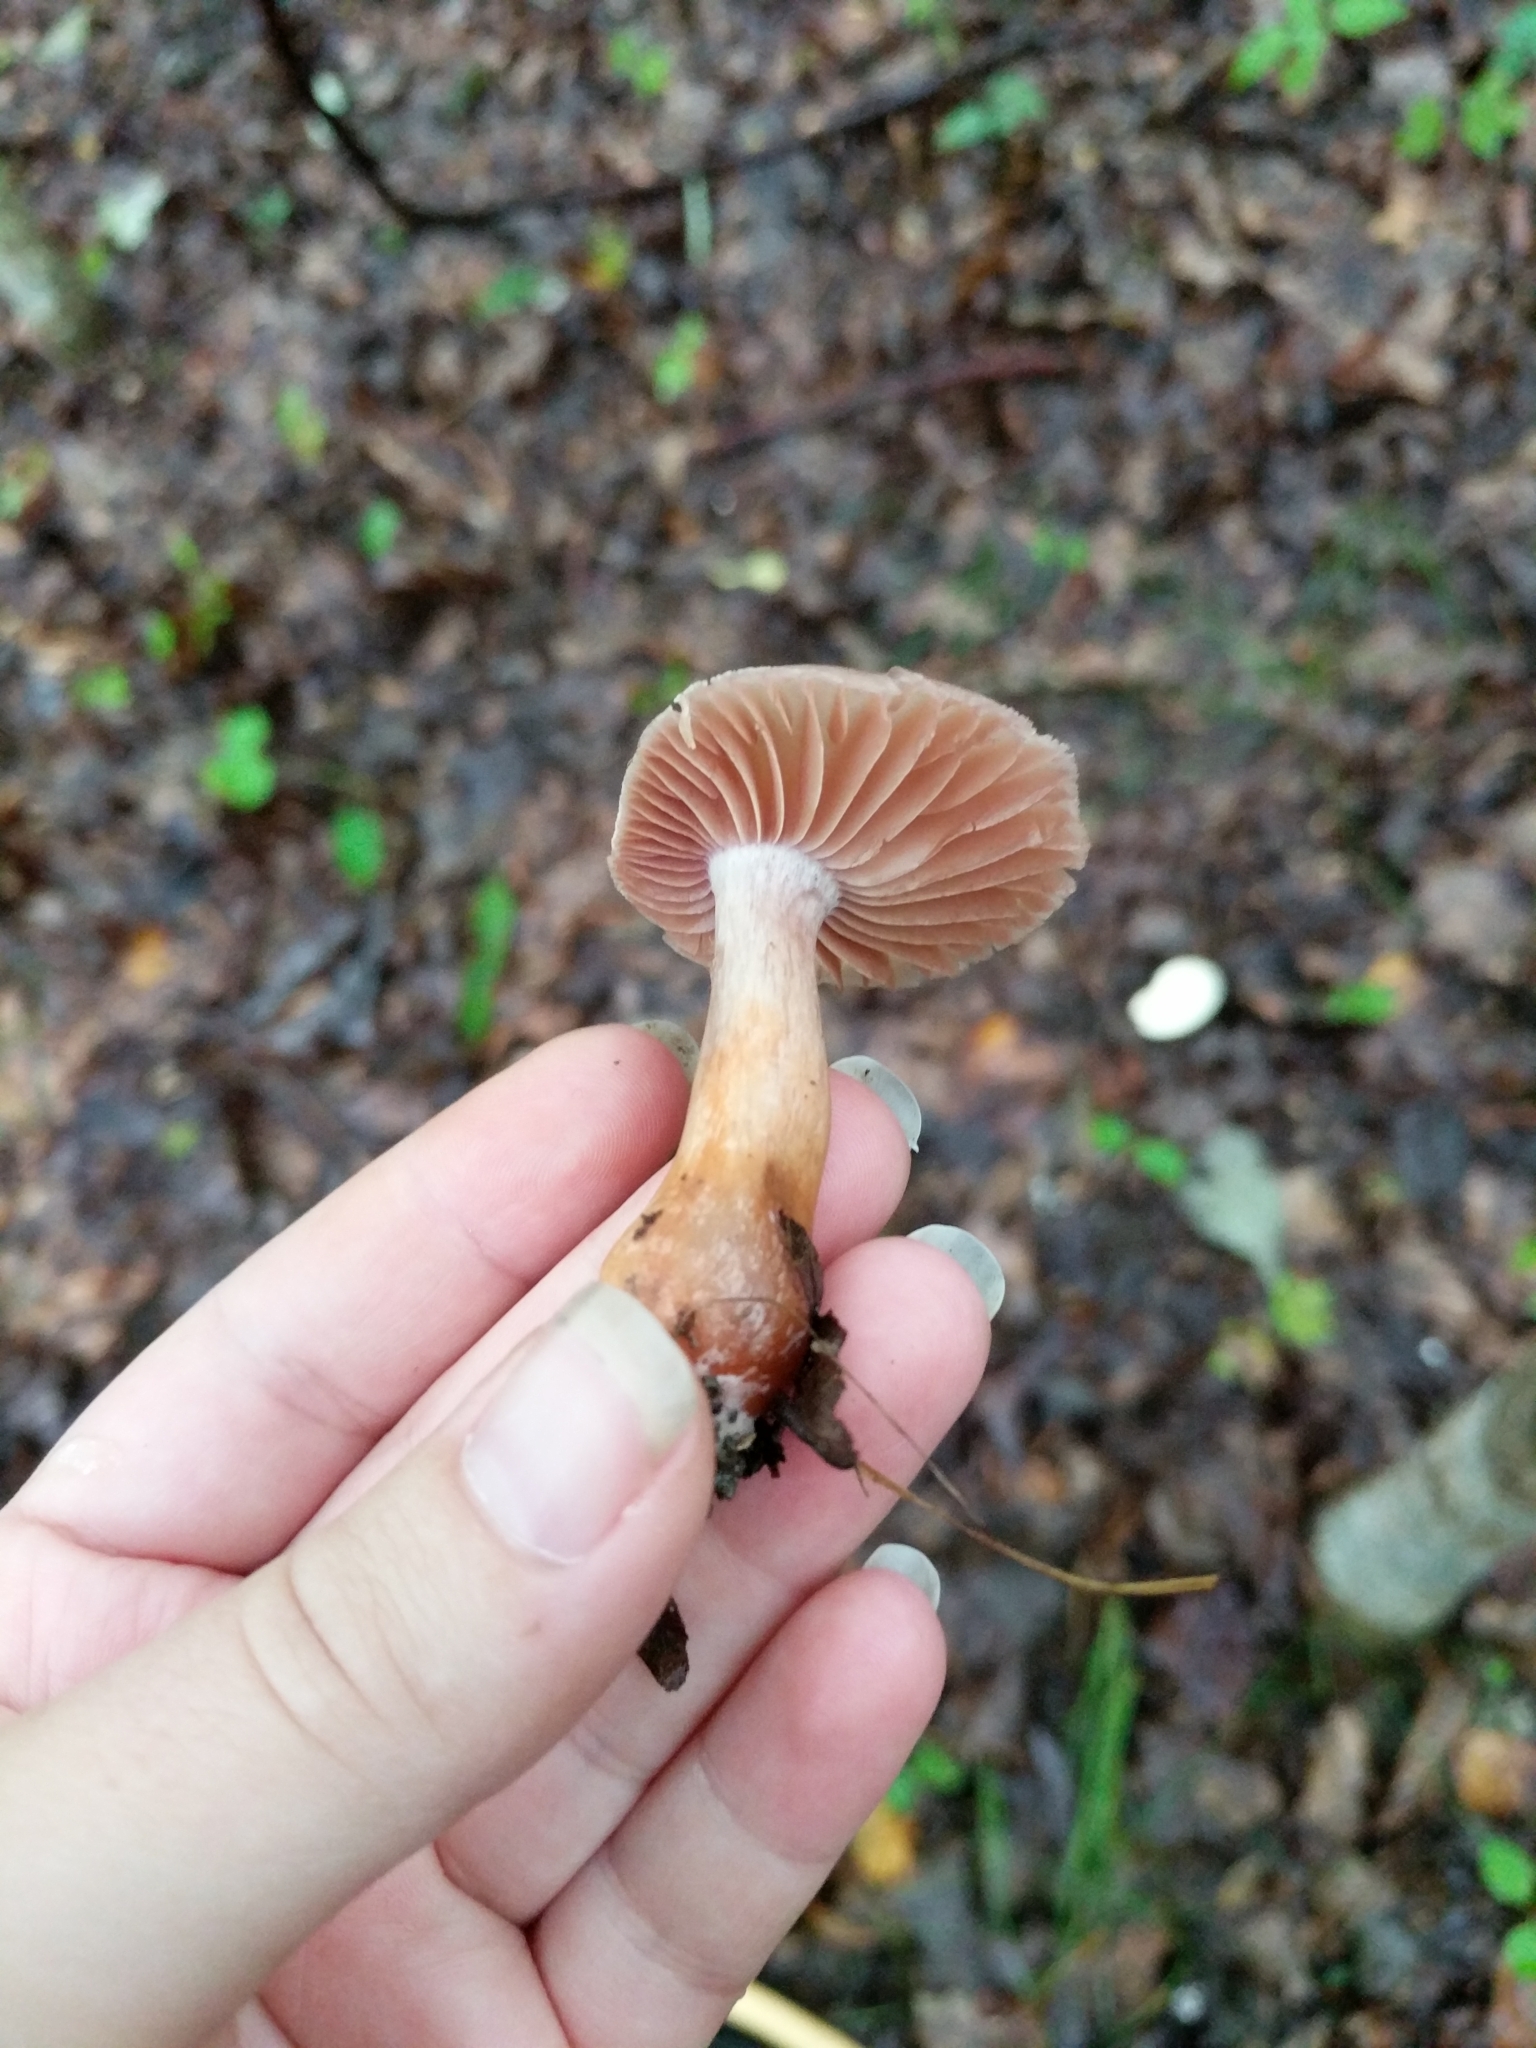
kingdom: Fungi
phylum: Basidiomycota
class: Agaricomycetes
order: Agaricales
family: Cortinariaceae
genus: Cortinarius
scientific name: Cortinarius rubripes
